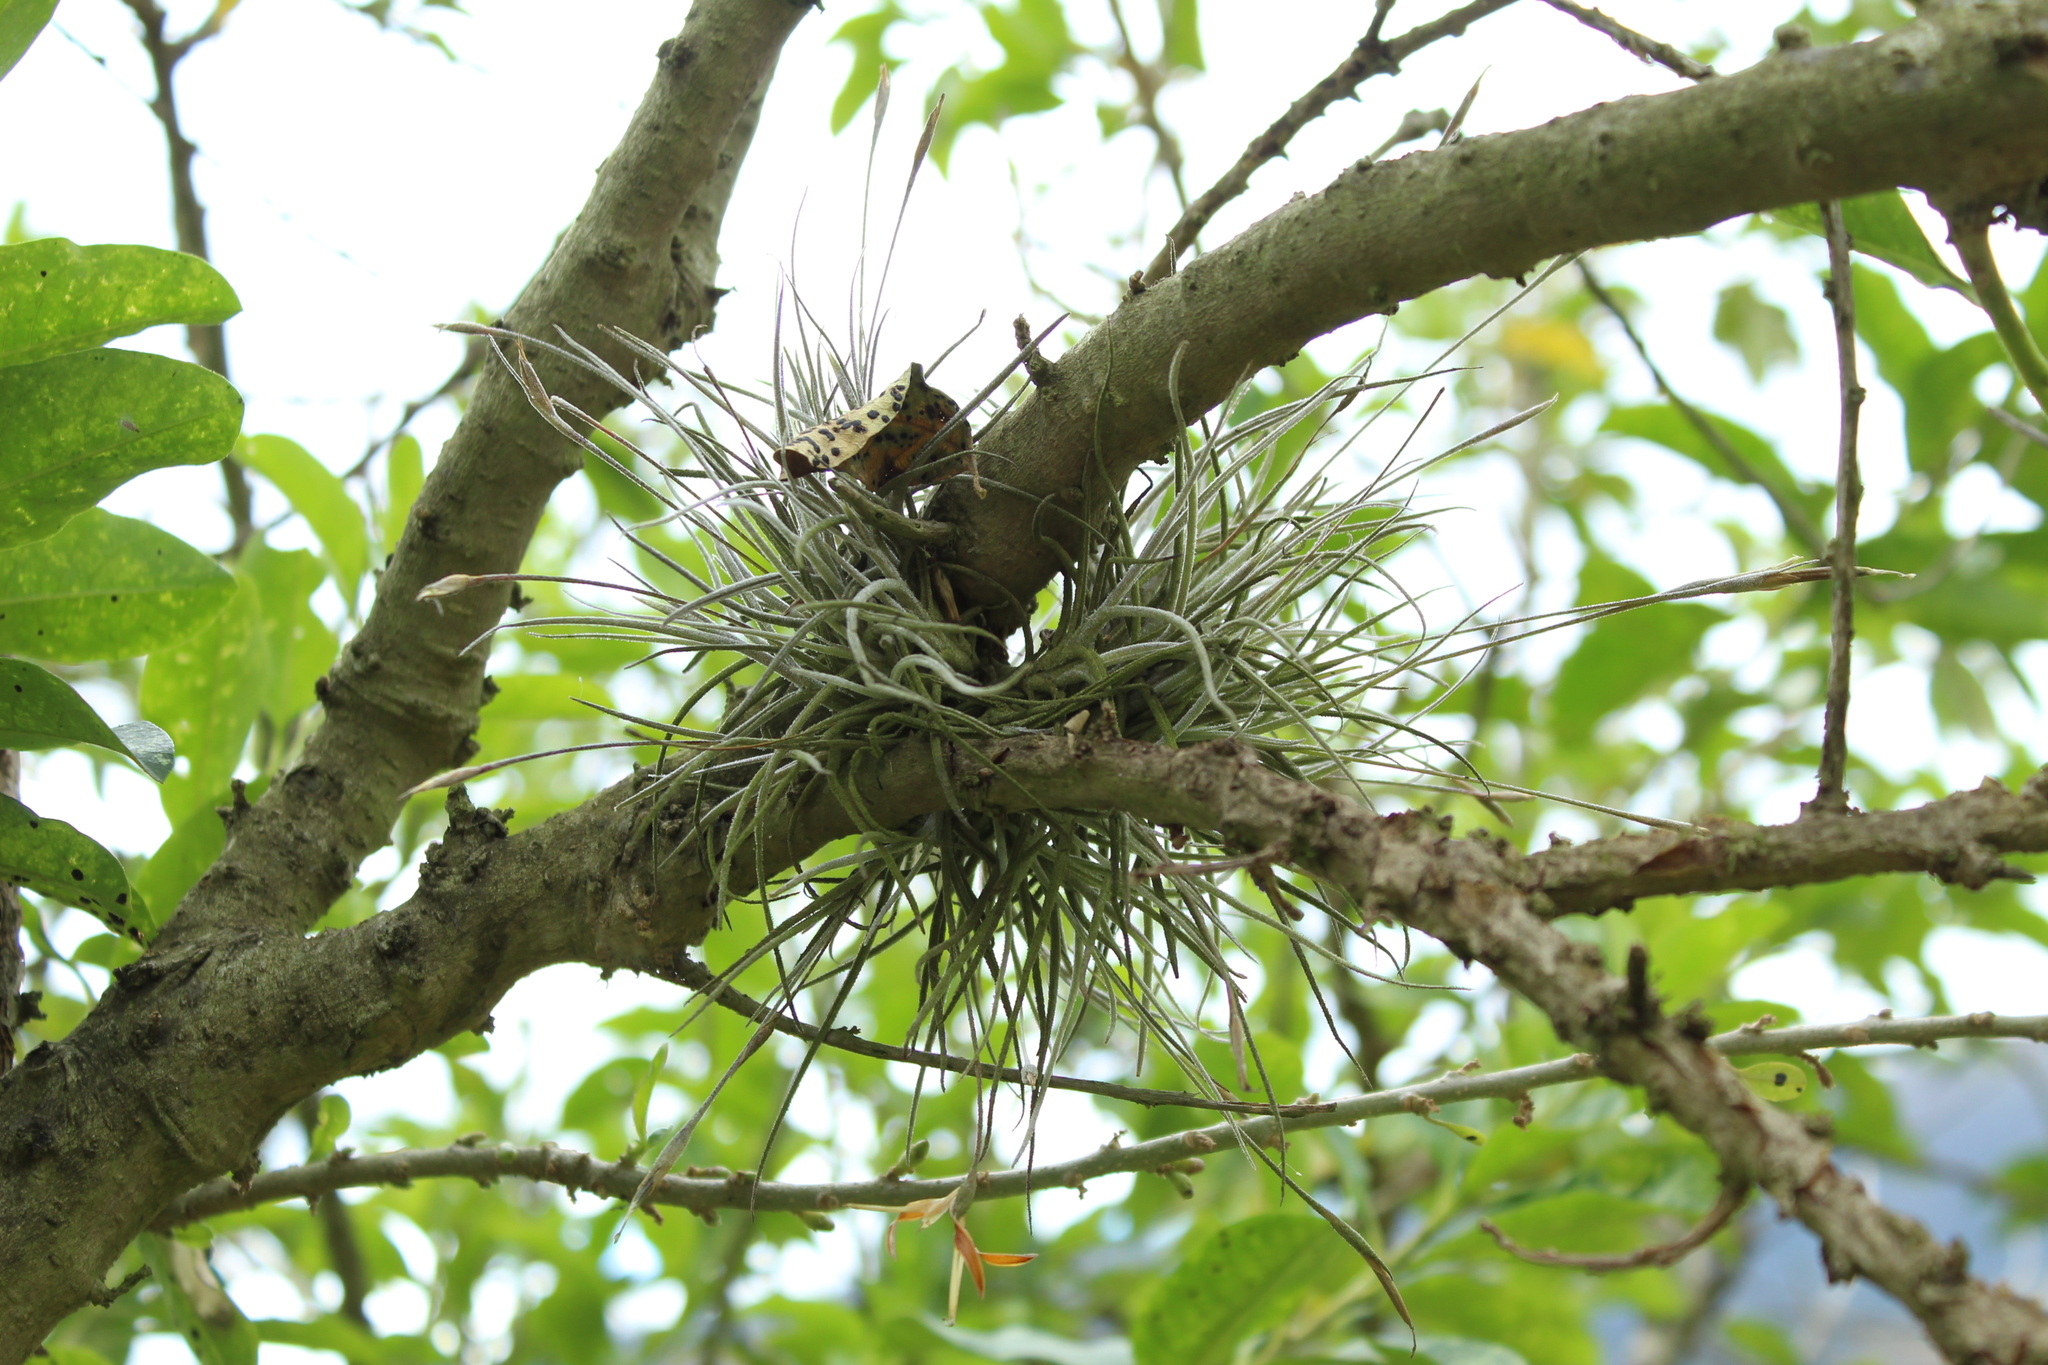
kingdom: Plantae
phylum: Tracheophyta
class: Liliopsida
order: Poales
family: Bromeliaceae
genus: Tillandsia
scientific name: Tillandsia recurvata
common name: Small ballmoss
